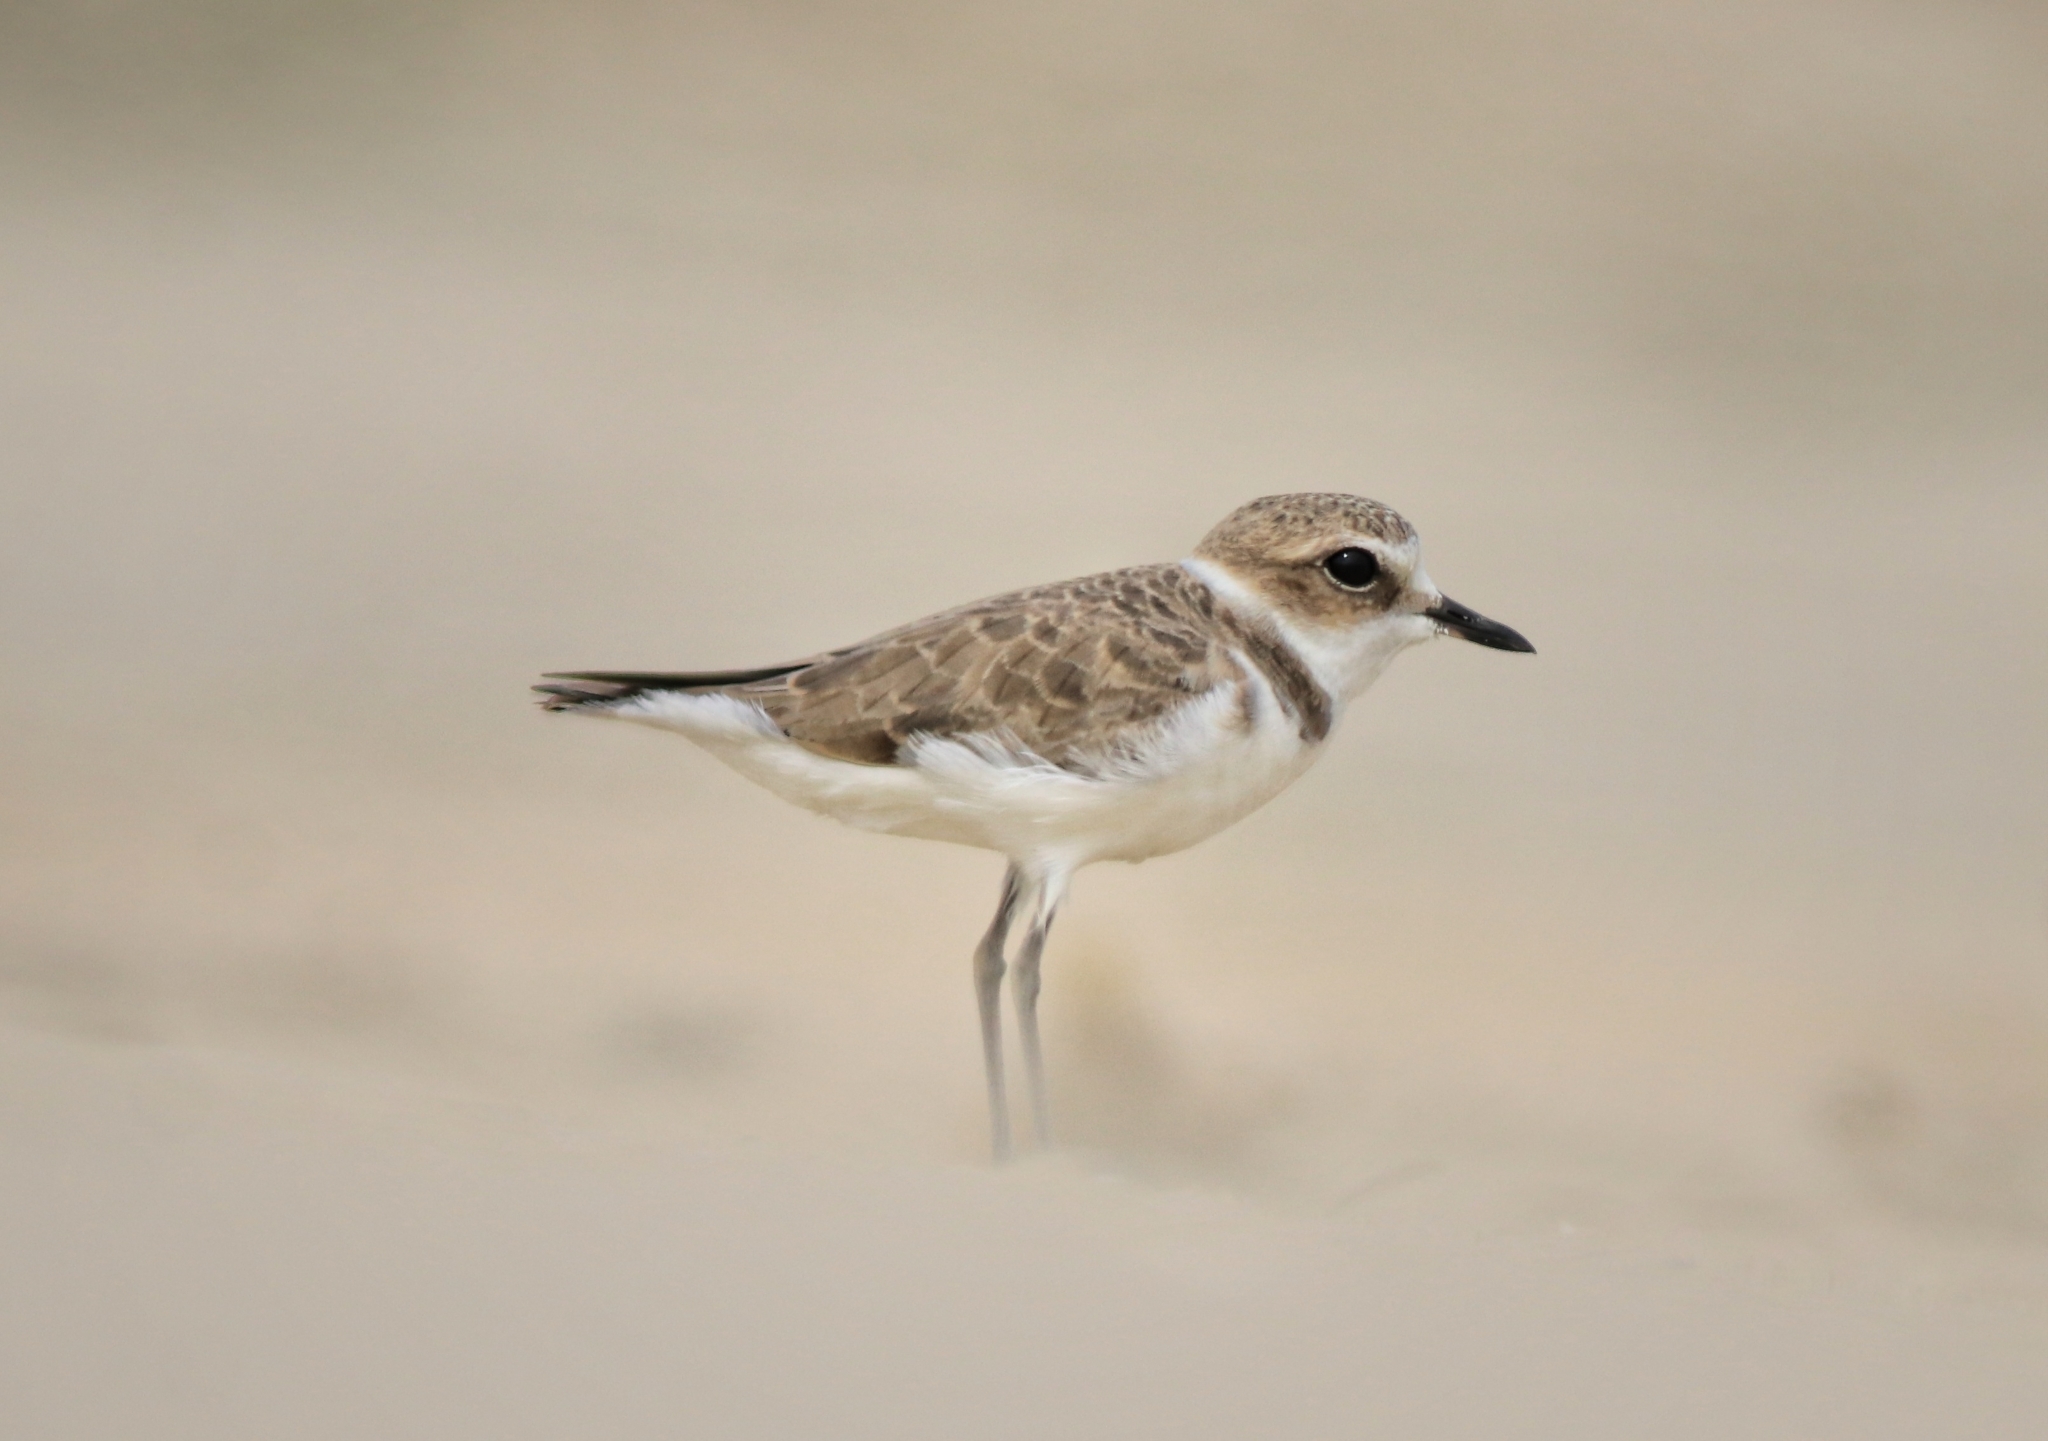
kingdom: Animalia
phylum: Chordata
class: Aves
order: Charadriiformes
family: Charadriidae
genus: Charadrius
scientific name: Charadrius alexandrinus
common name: Kentish plover
